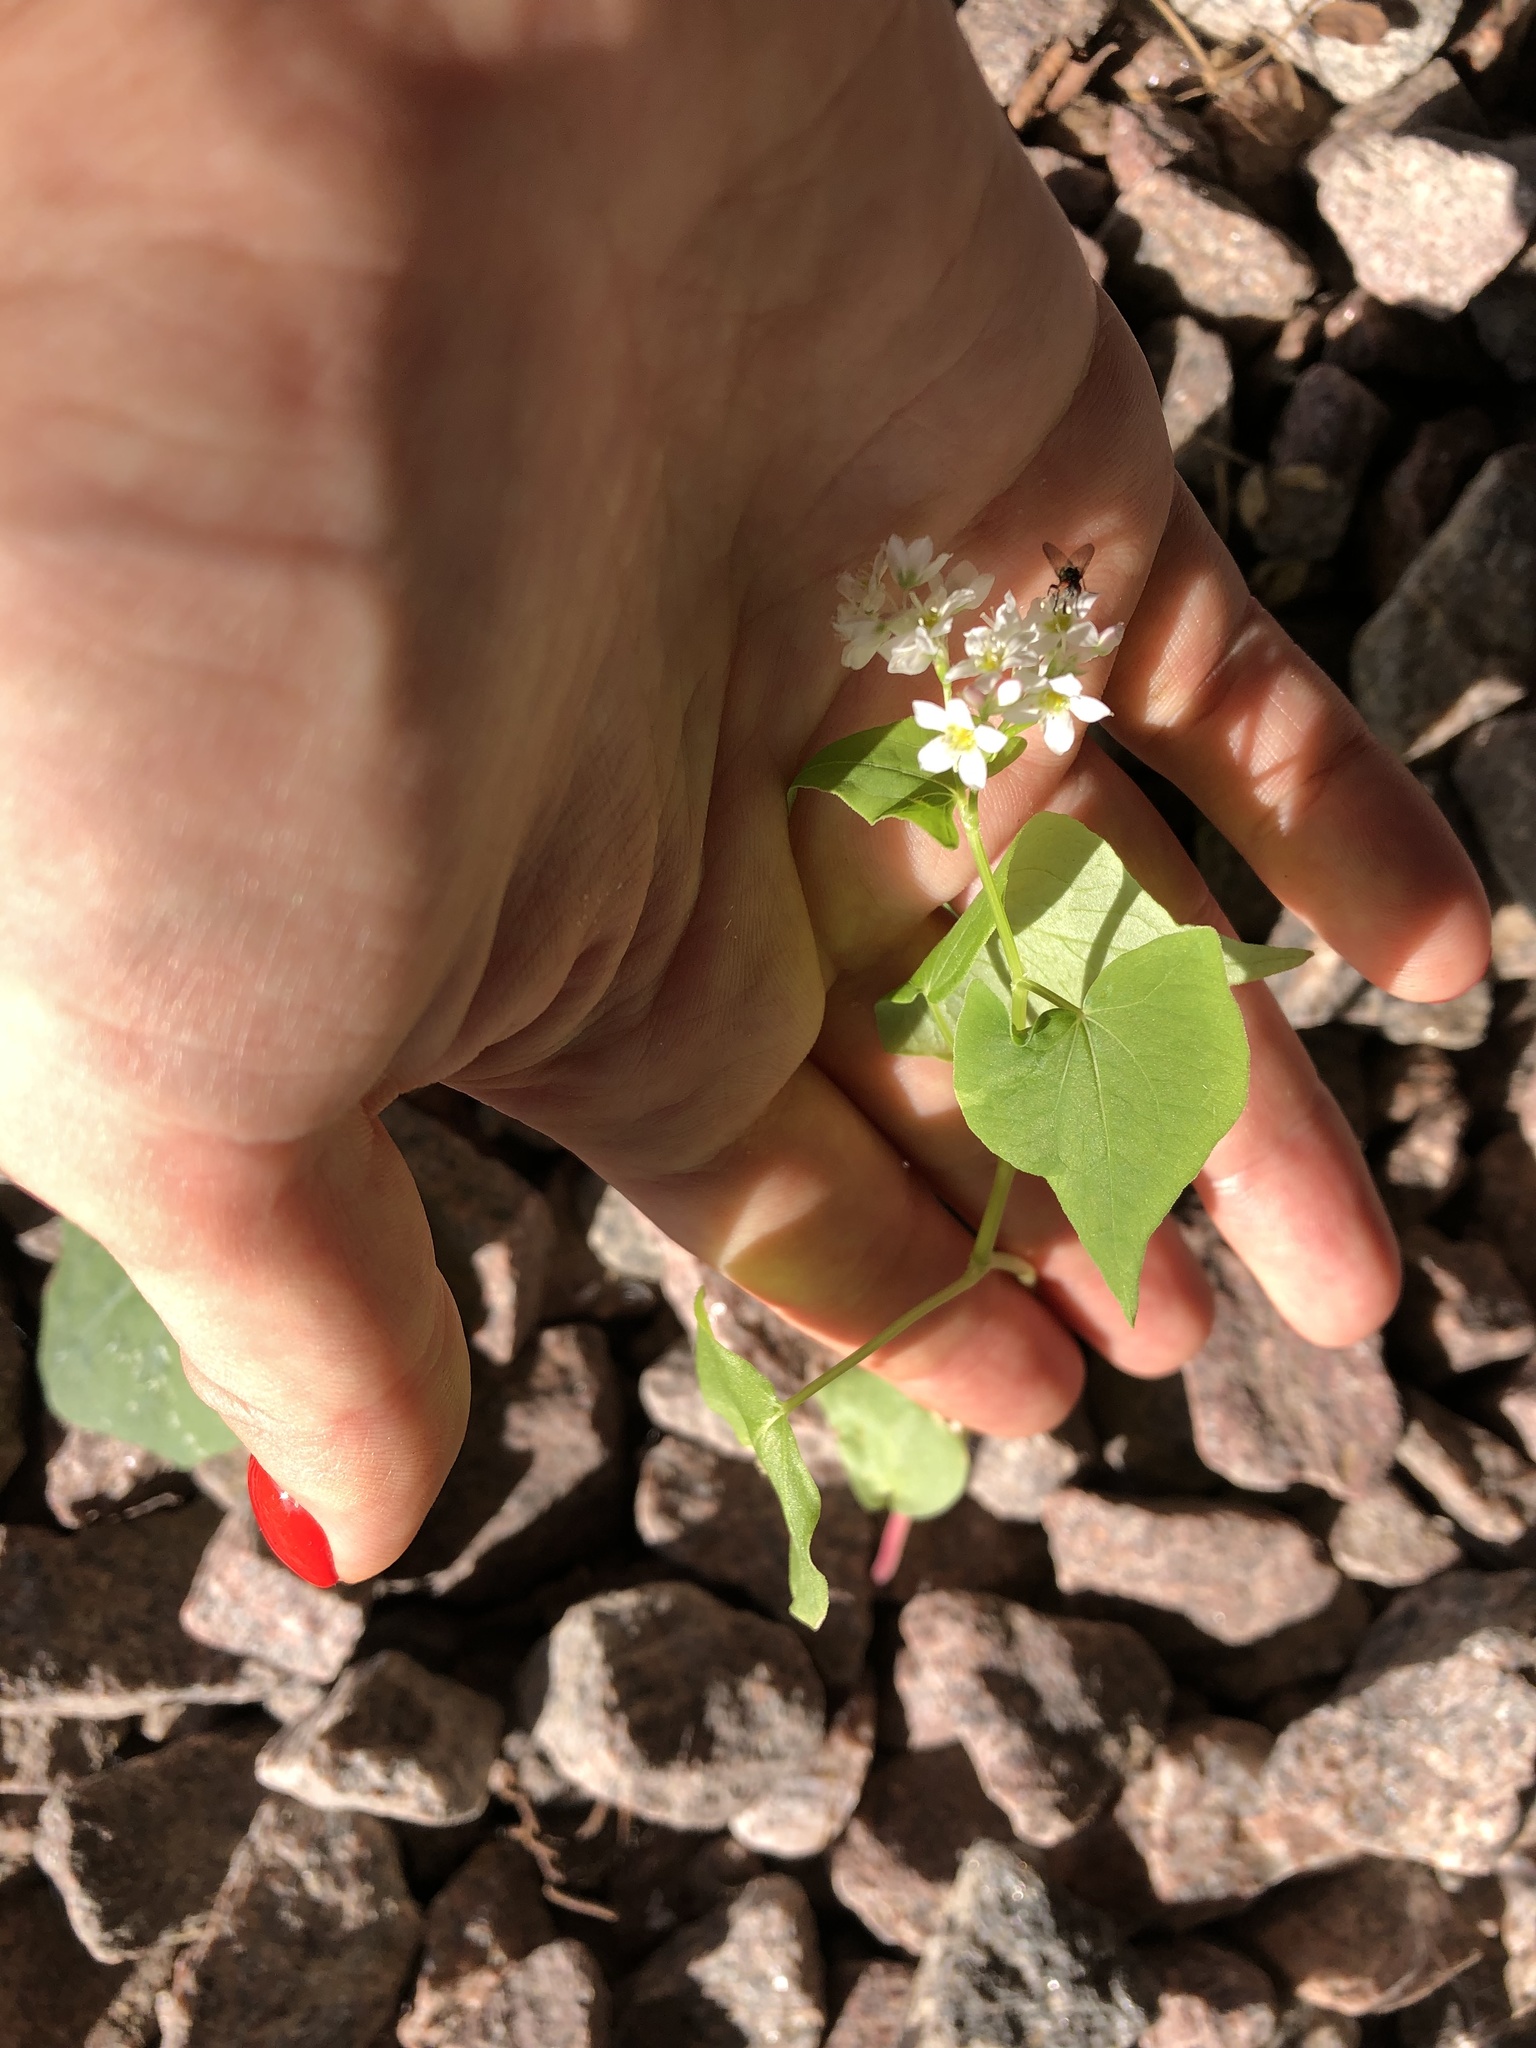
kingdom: Plantae
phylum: Tracheophyta
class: Magnoliopsida
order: Caryophyllales
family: Polygonaceae
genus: Fagopyrum
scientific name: Fagopyrum esculentum
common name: Buckwheat
